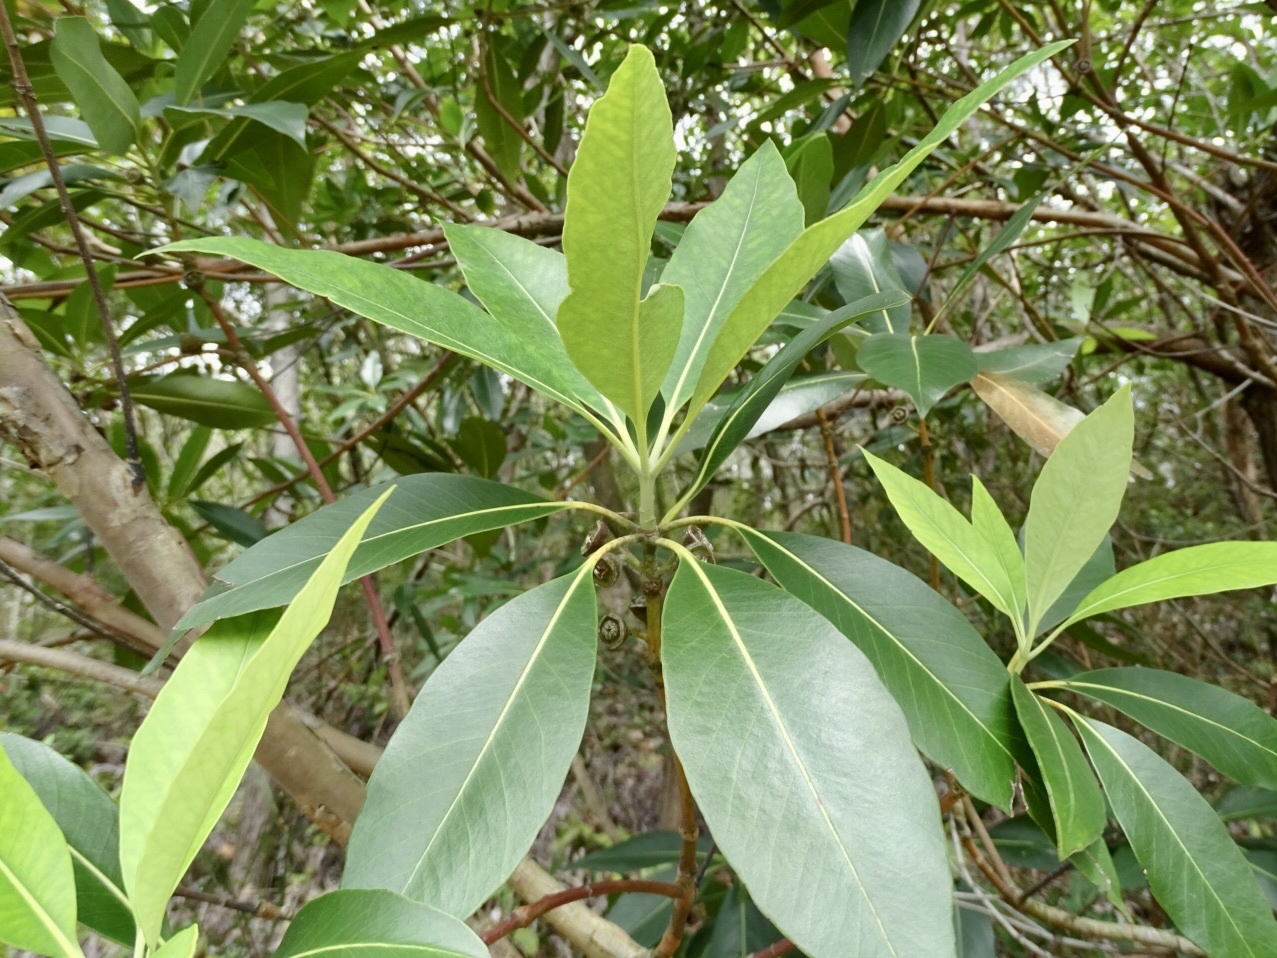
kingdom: Plantae
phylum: Tracheophyta
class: Magnoliopsida
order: Myrtales
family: Myrtaceae
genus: Lophostemon
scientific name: Lophostemon confertus
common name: Brisbane box
